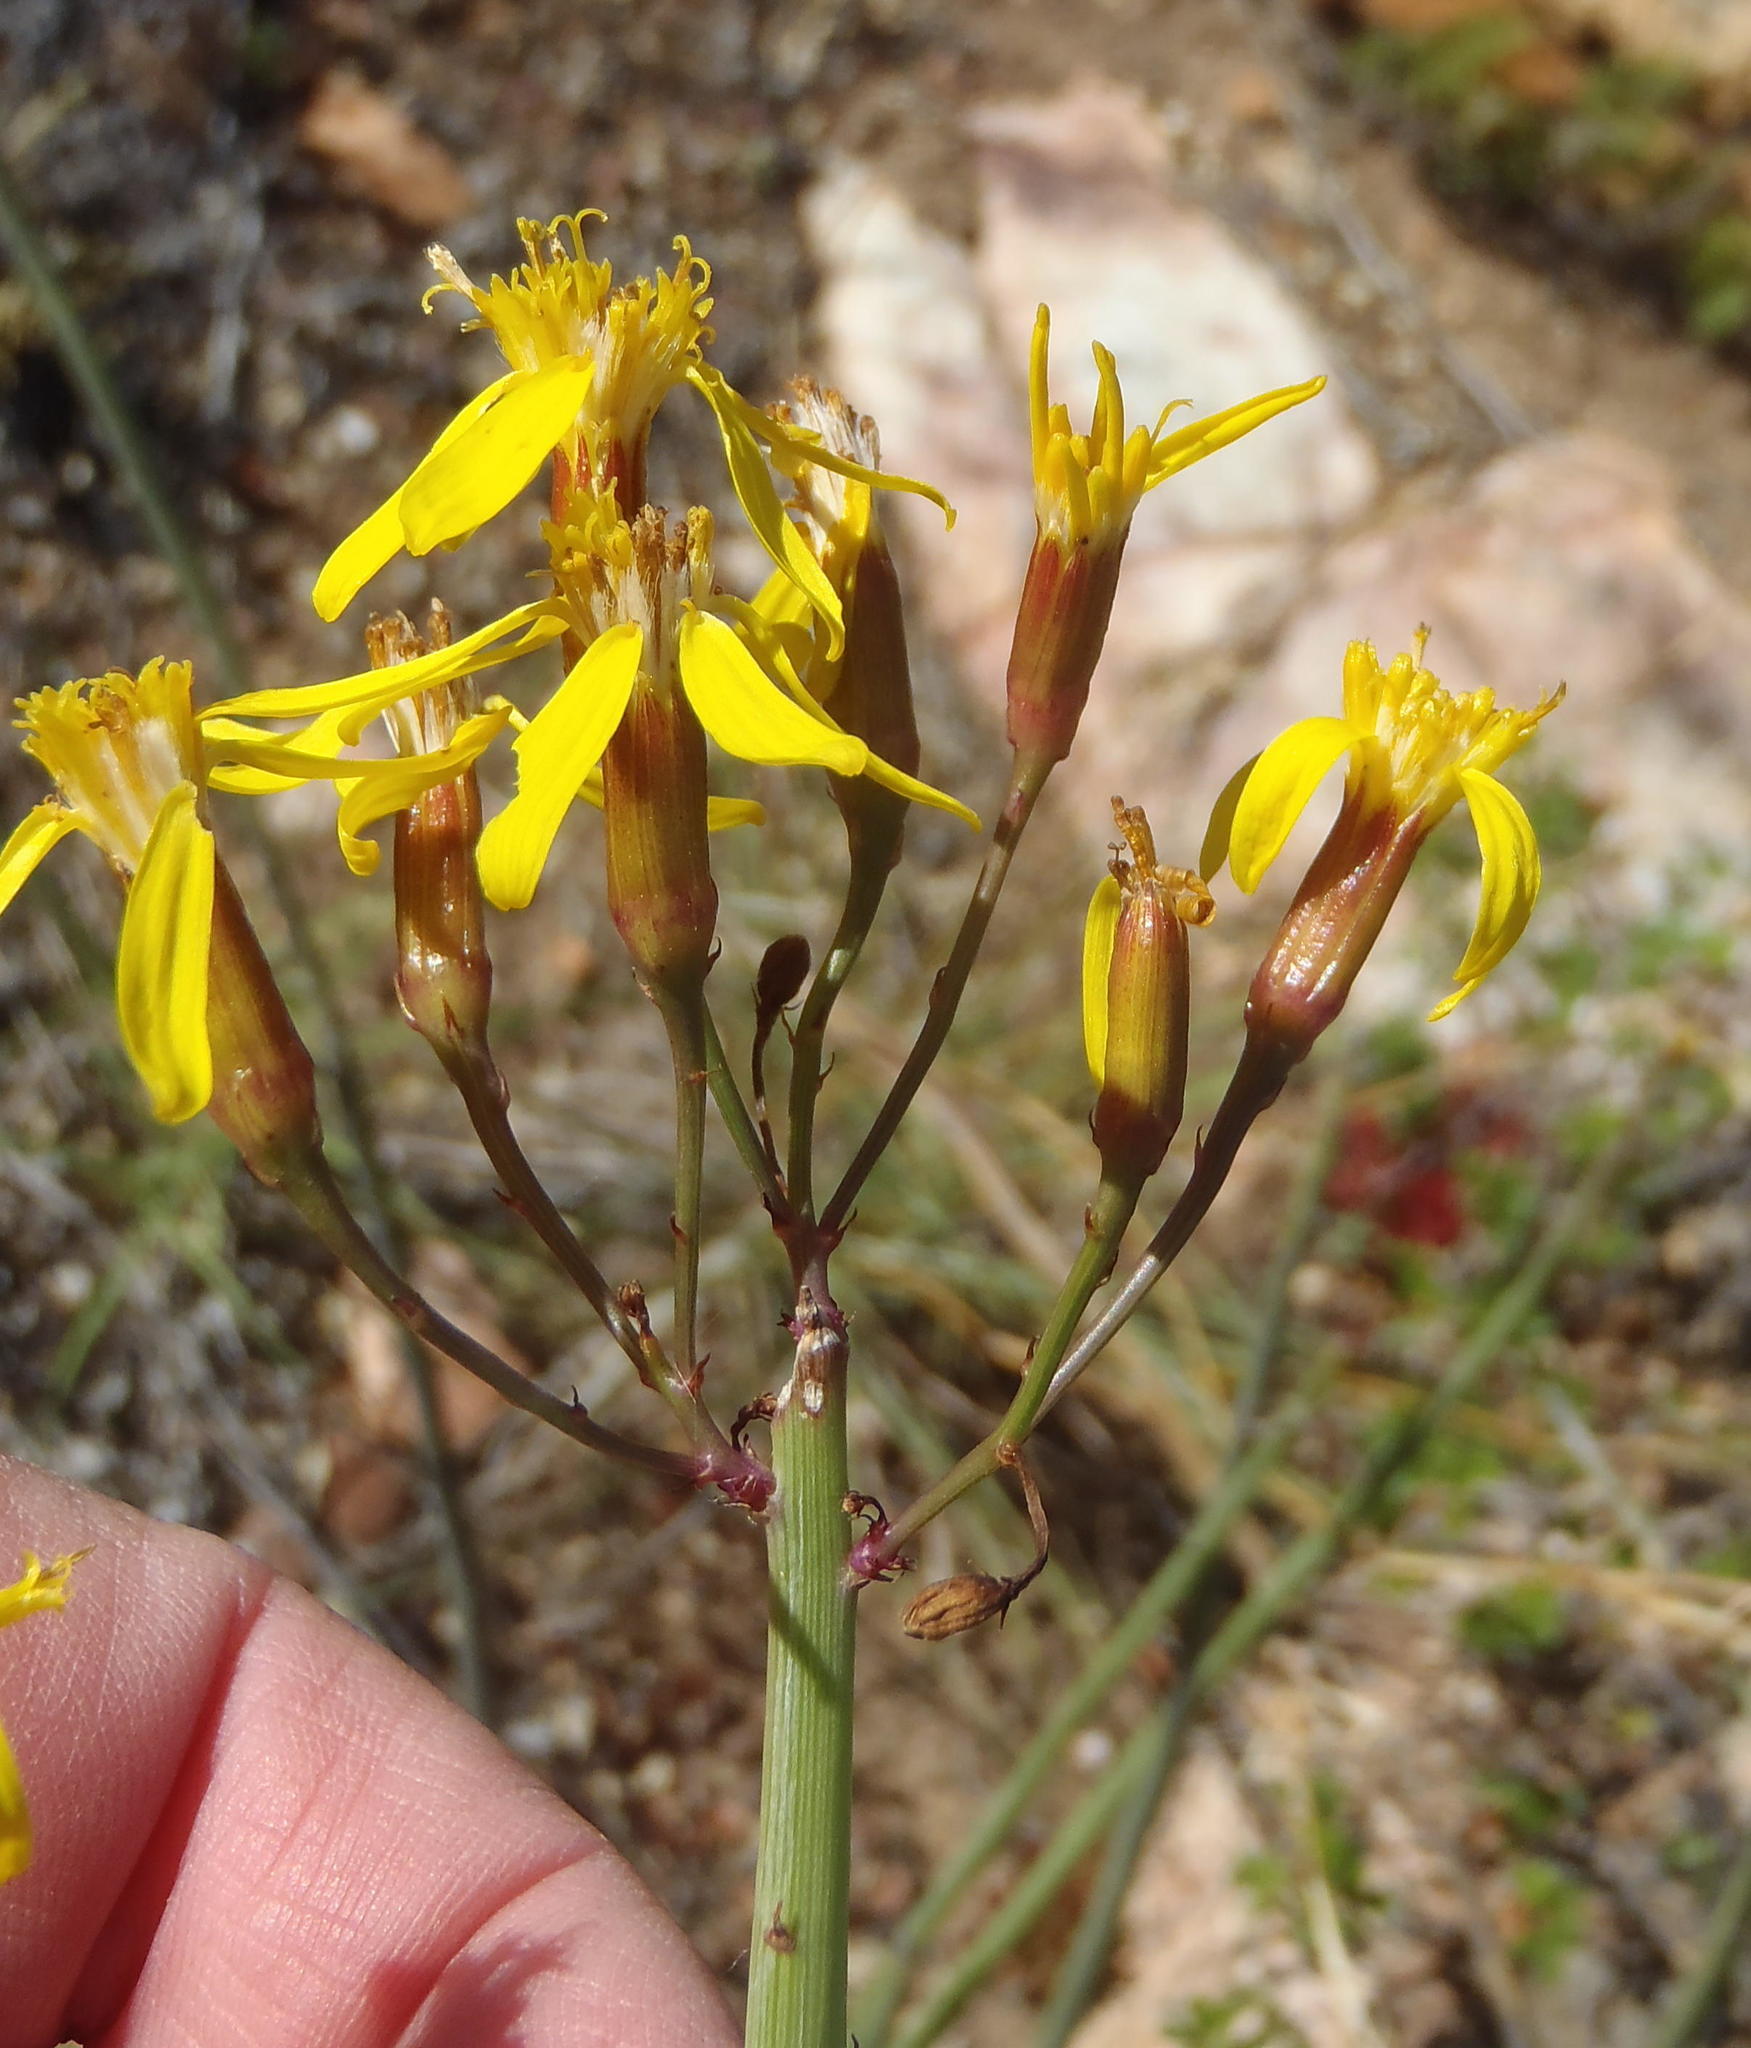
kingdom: Plantae
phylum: Tracheophyta
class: Magnoliopsida
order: Asterales
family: Asteraceae
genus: Senecio
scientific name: Senecio junceus
